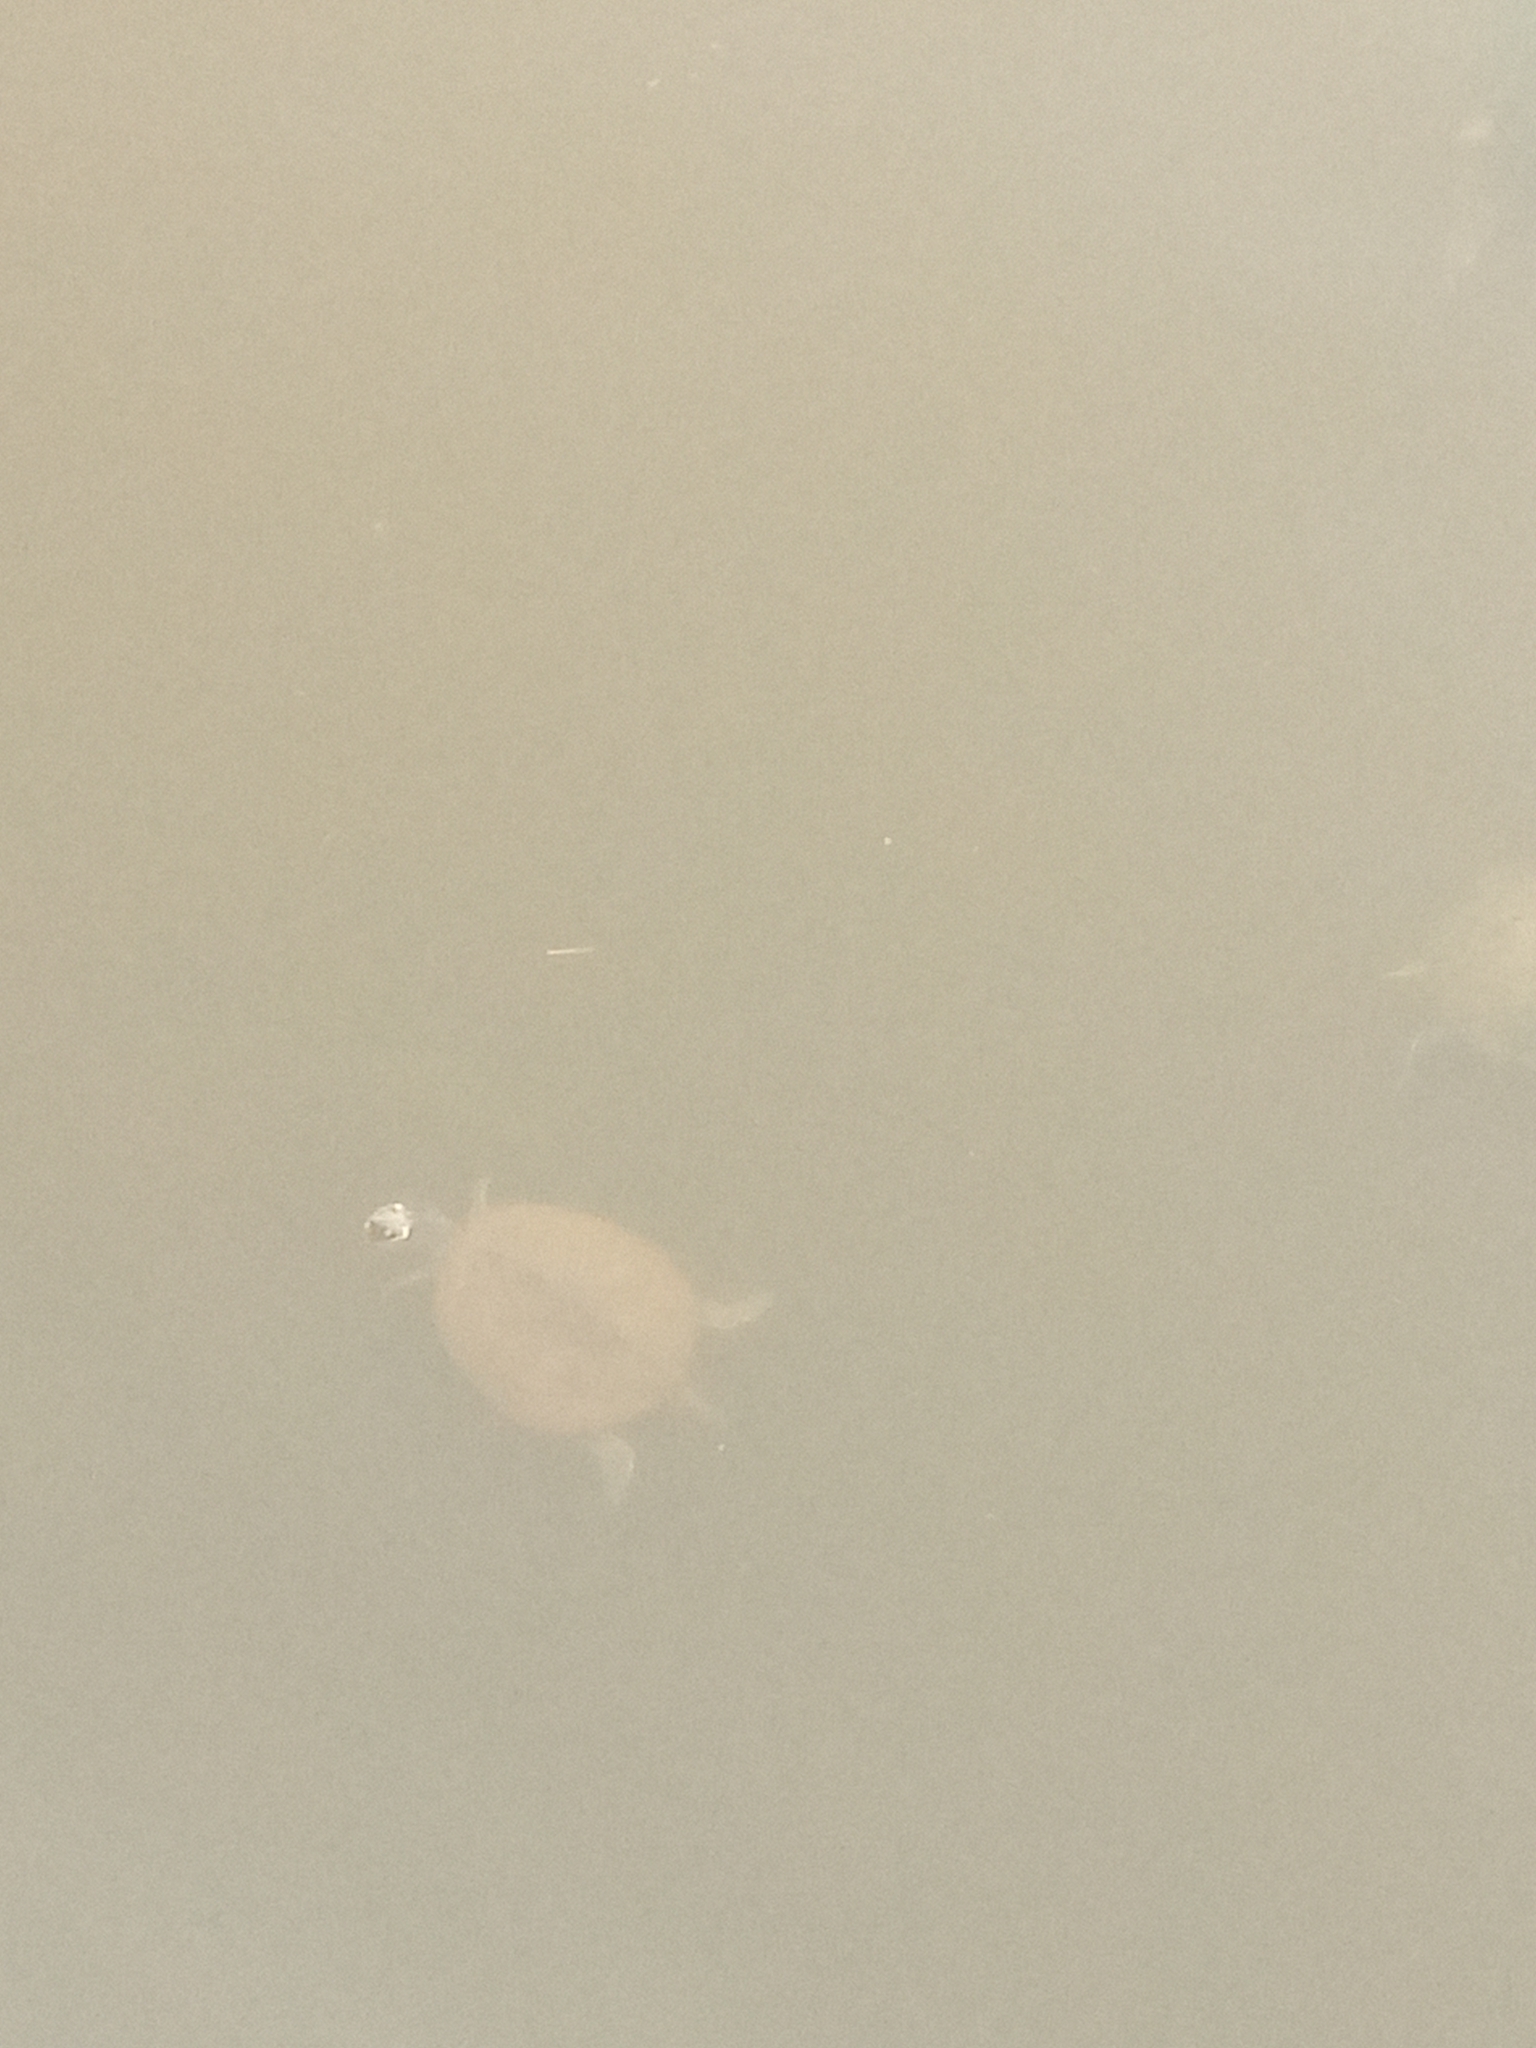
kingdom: Animalia
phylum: Chordata
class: Testudines
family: Emydidae
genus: Graptemys
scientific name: Graptemys pseudogeographica
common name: False map turtle
